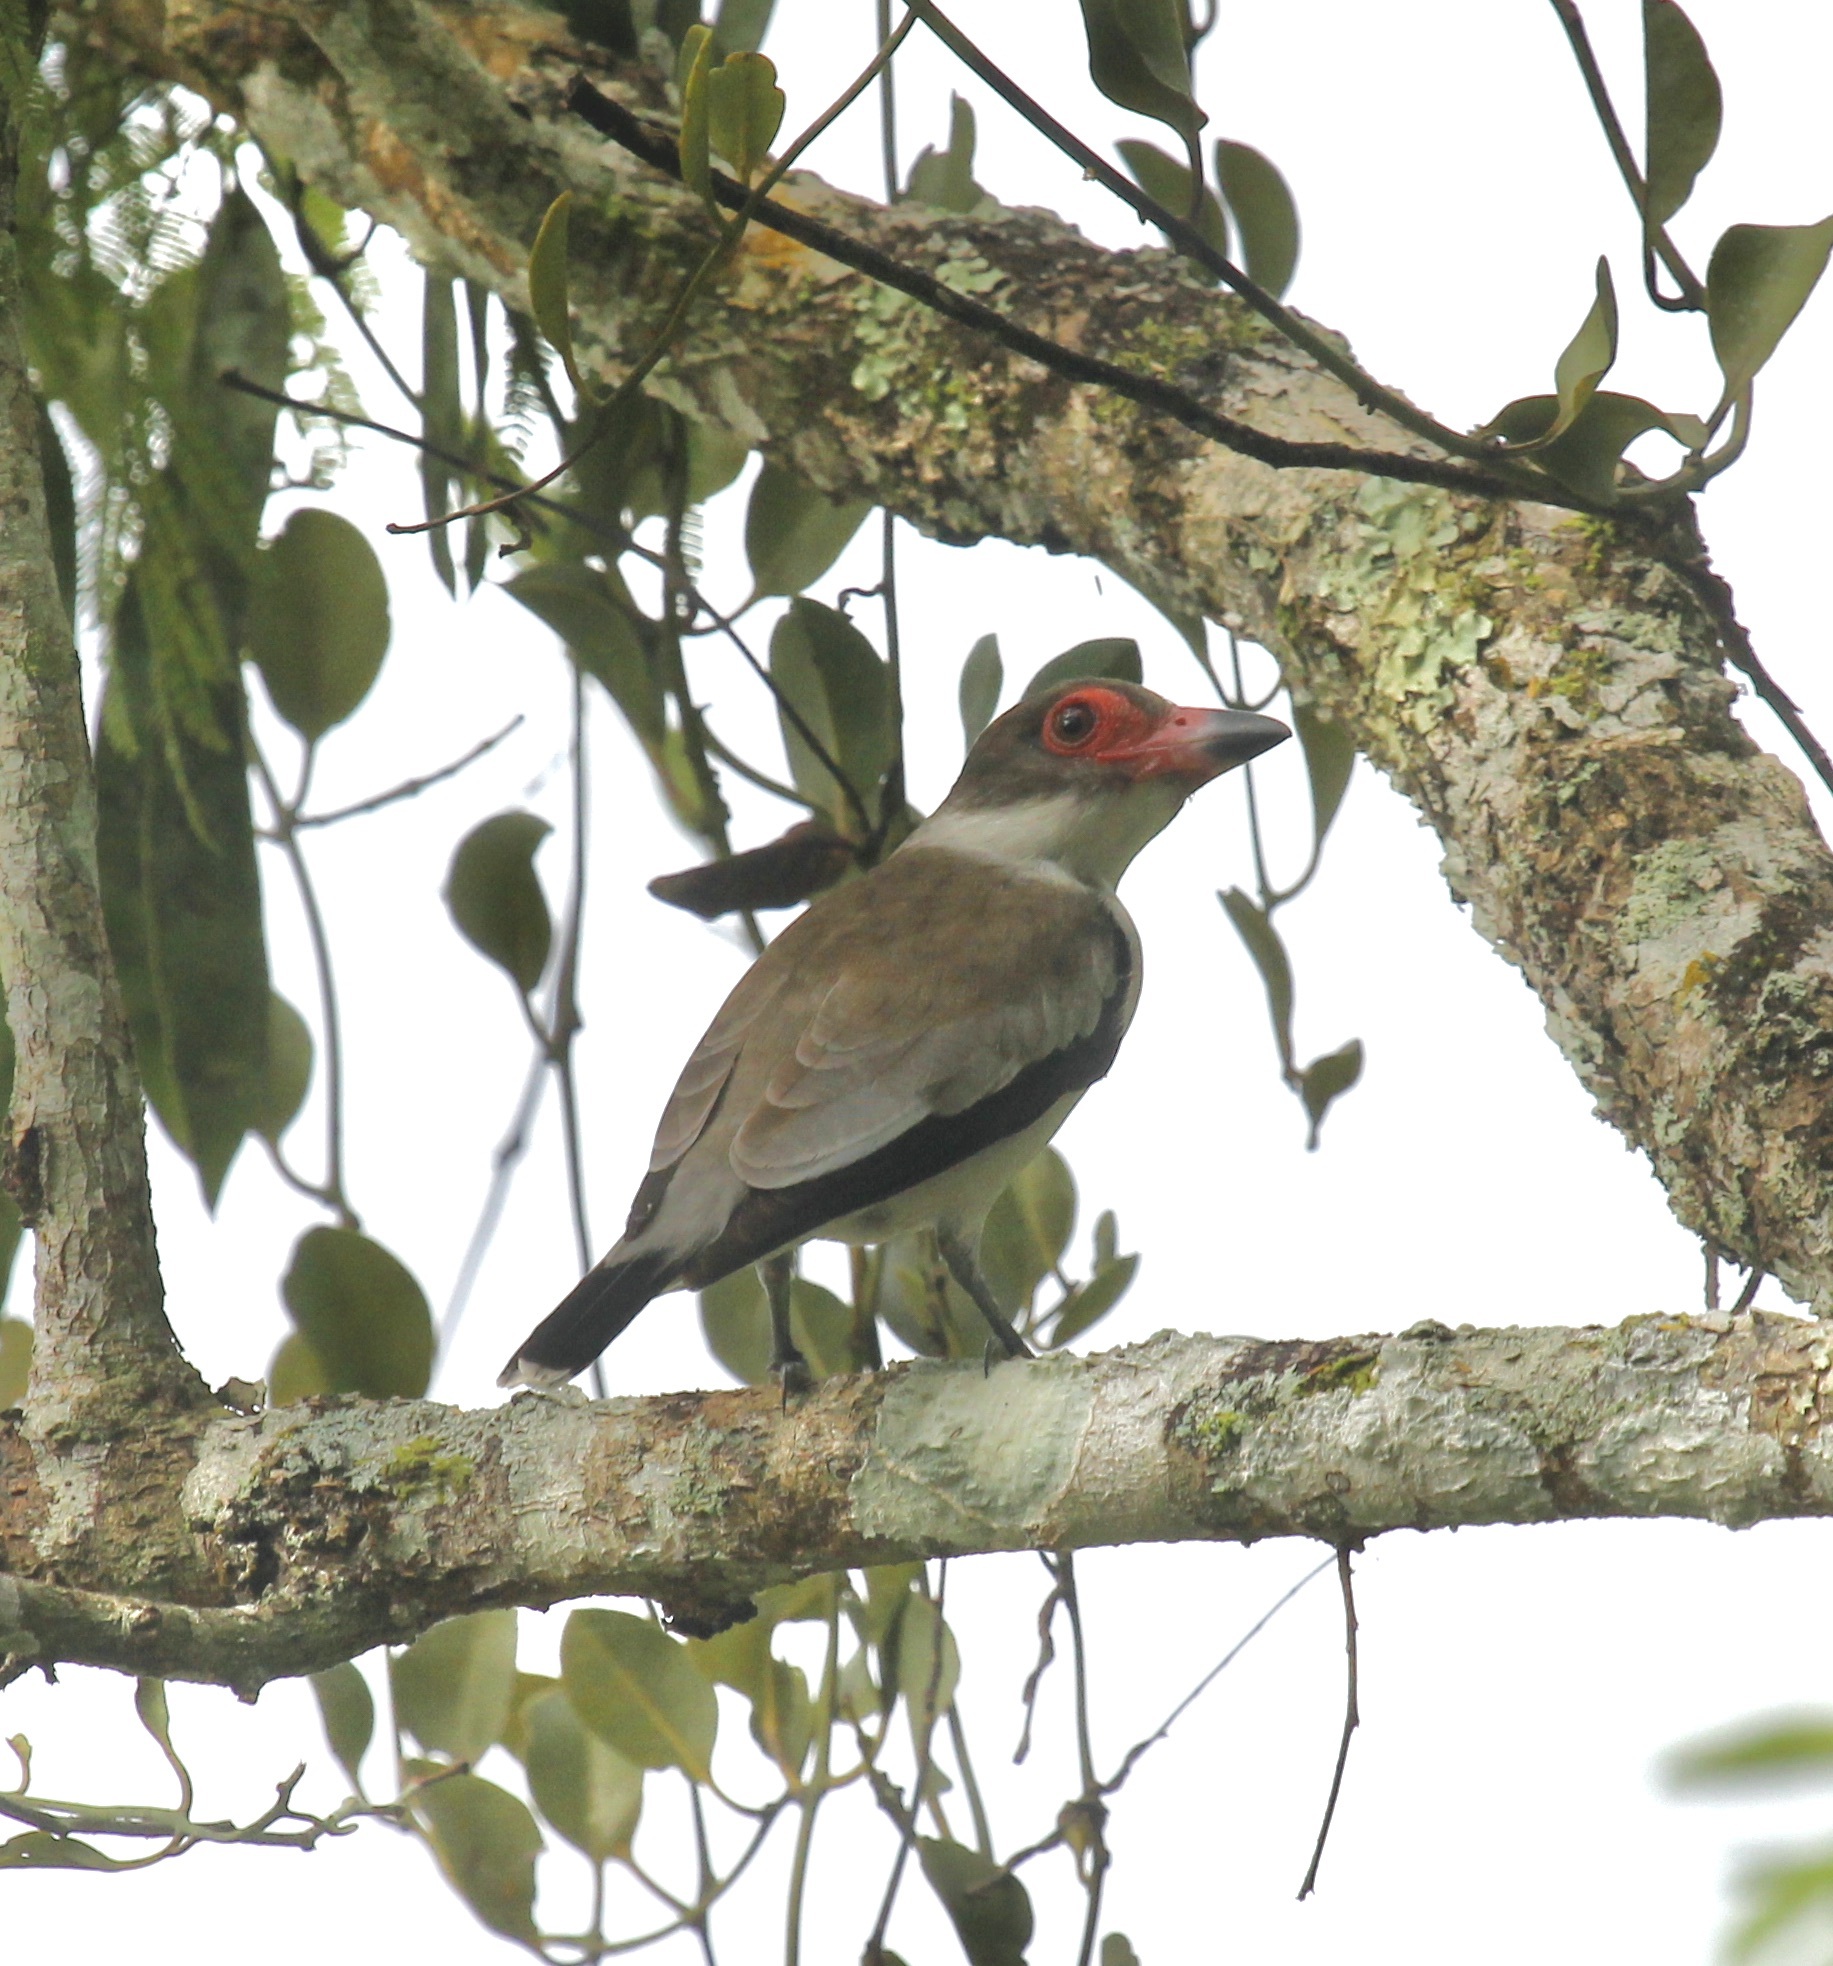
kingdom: Animalia
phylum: Chordata
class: Aves
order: Passeriformes
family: Cotingidae
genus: Tityra
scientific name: Tityra semifasciata
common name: Masked tityra
